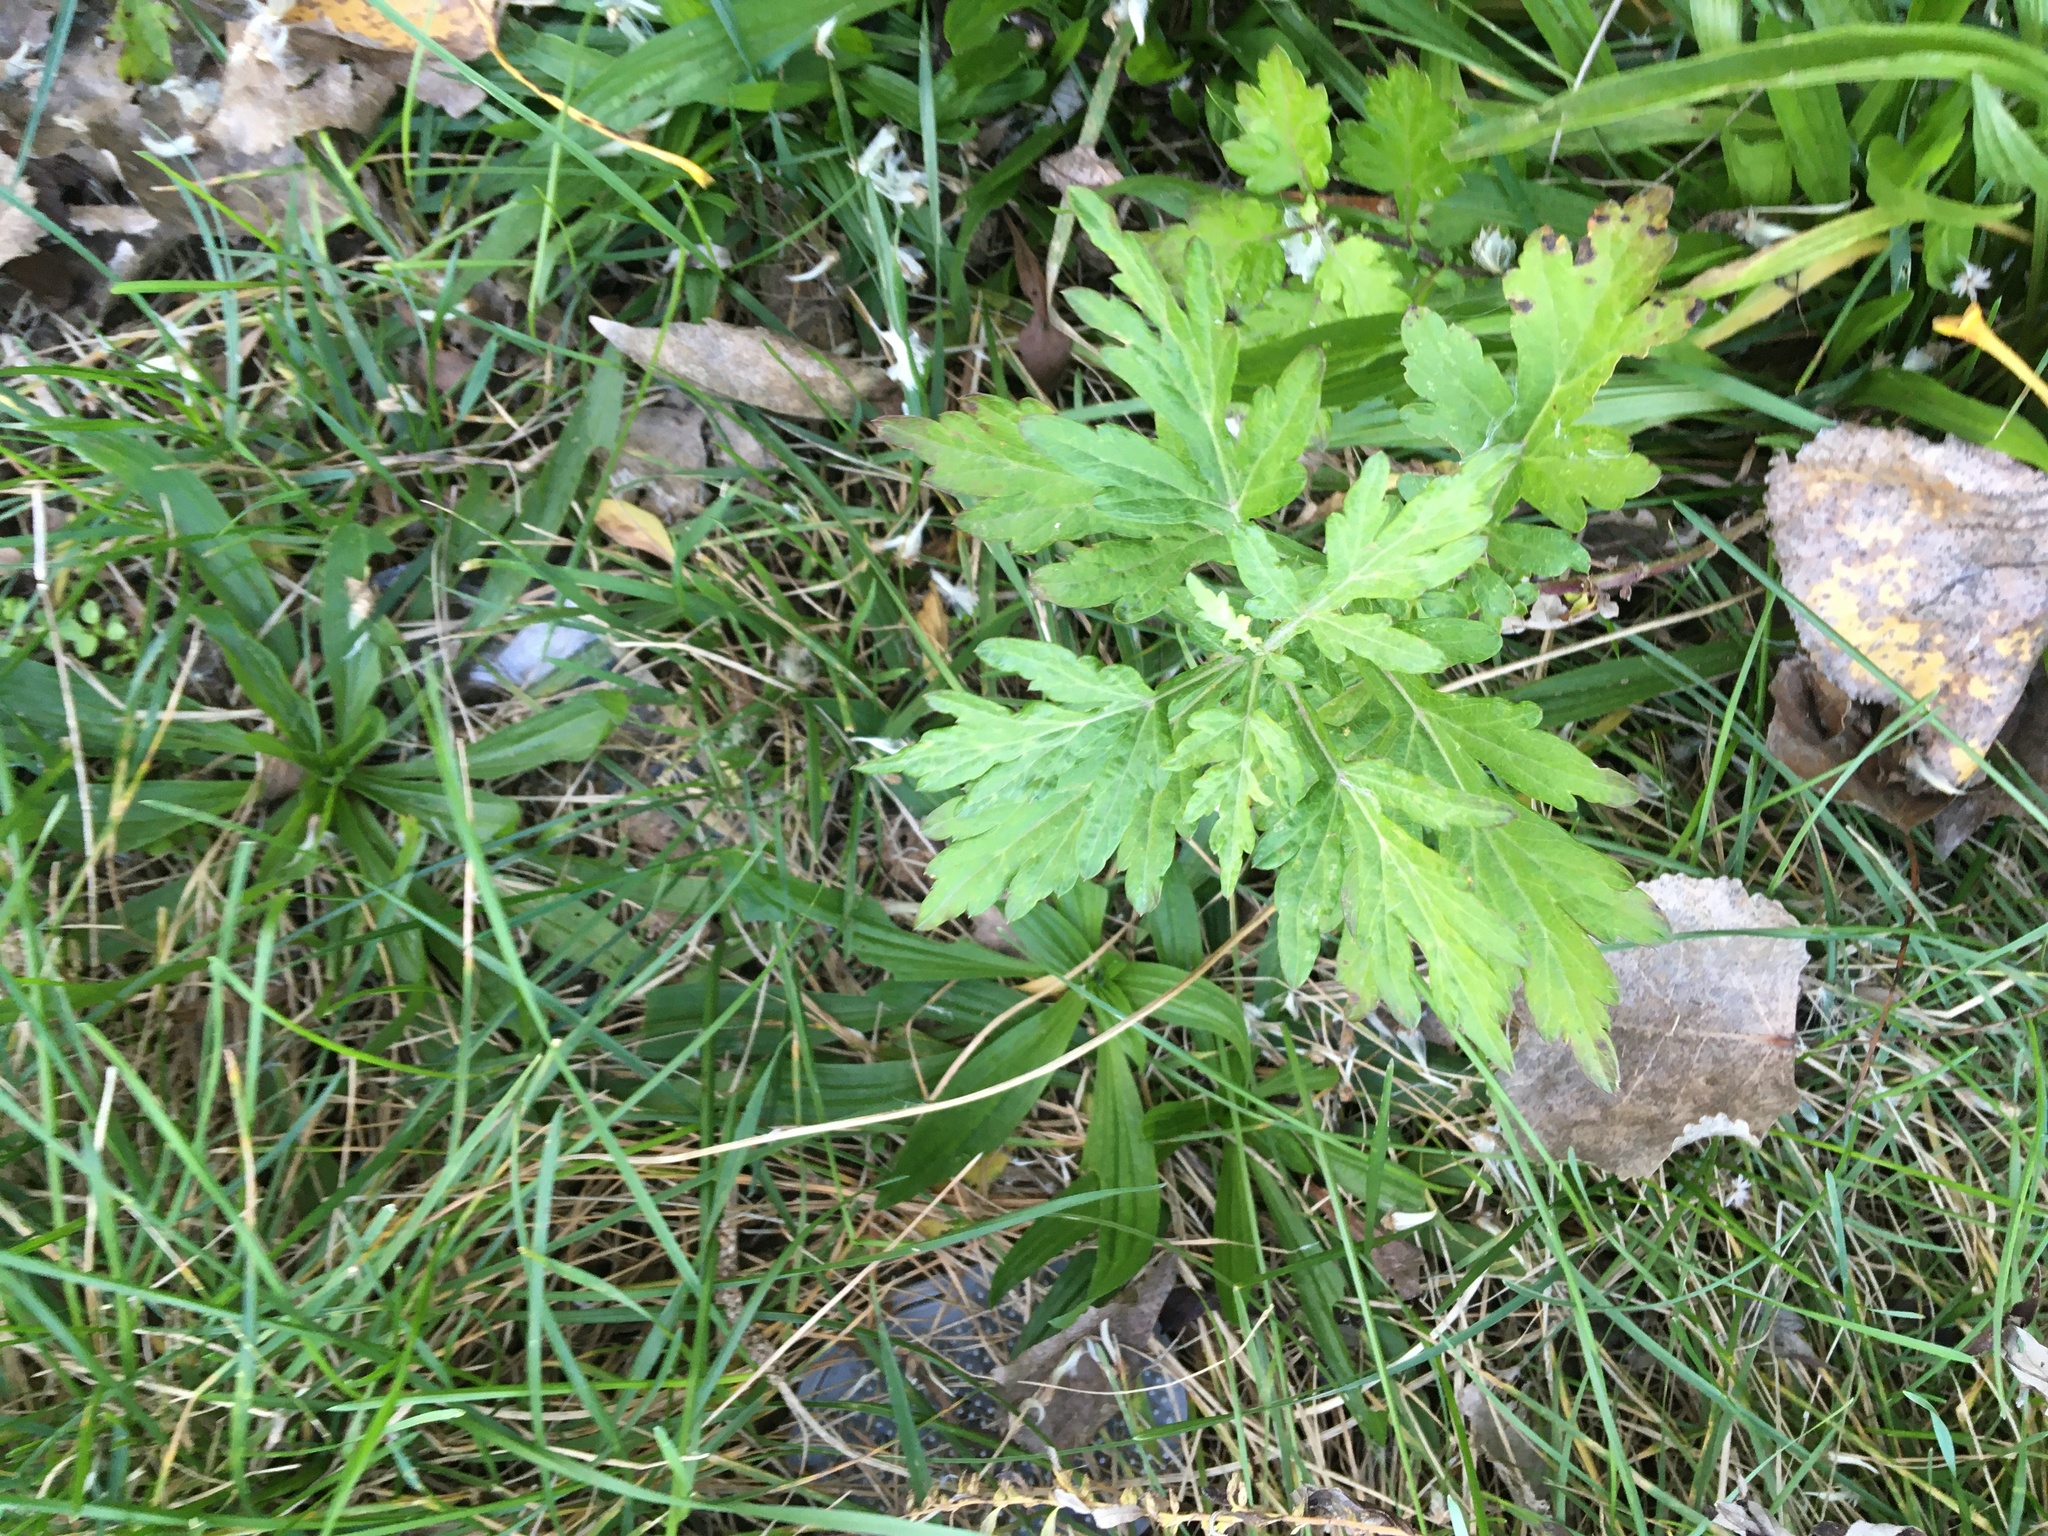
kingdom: Plantae
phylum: Tracheophyta
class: Magnoliopsida
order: Asterales
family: Asteraceae
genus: Artemisia
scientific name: Artemisia vulgaris
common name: Mugwort
